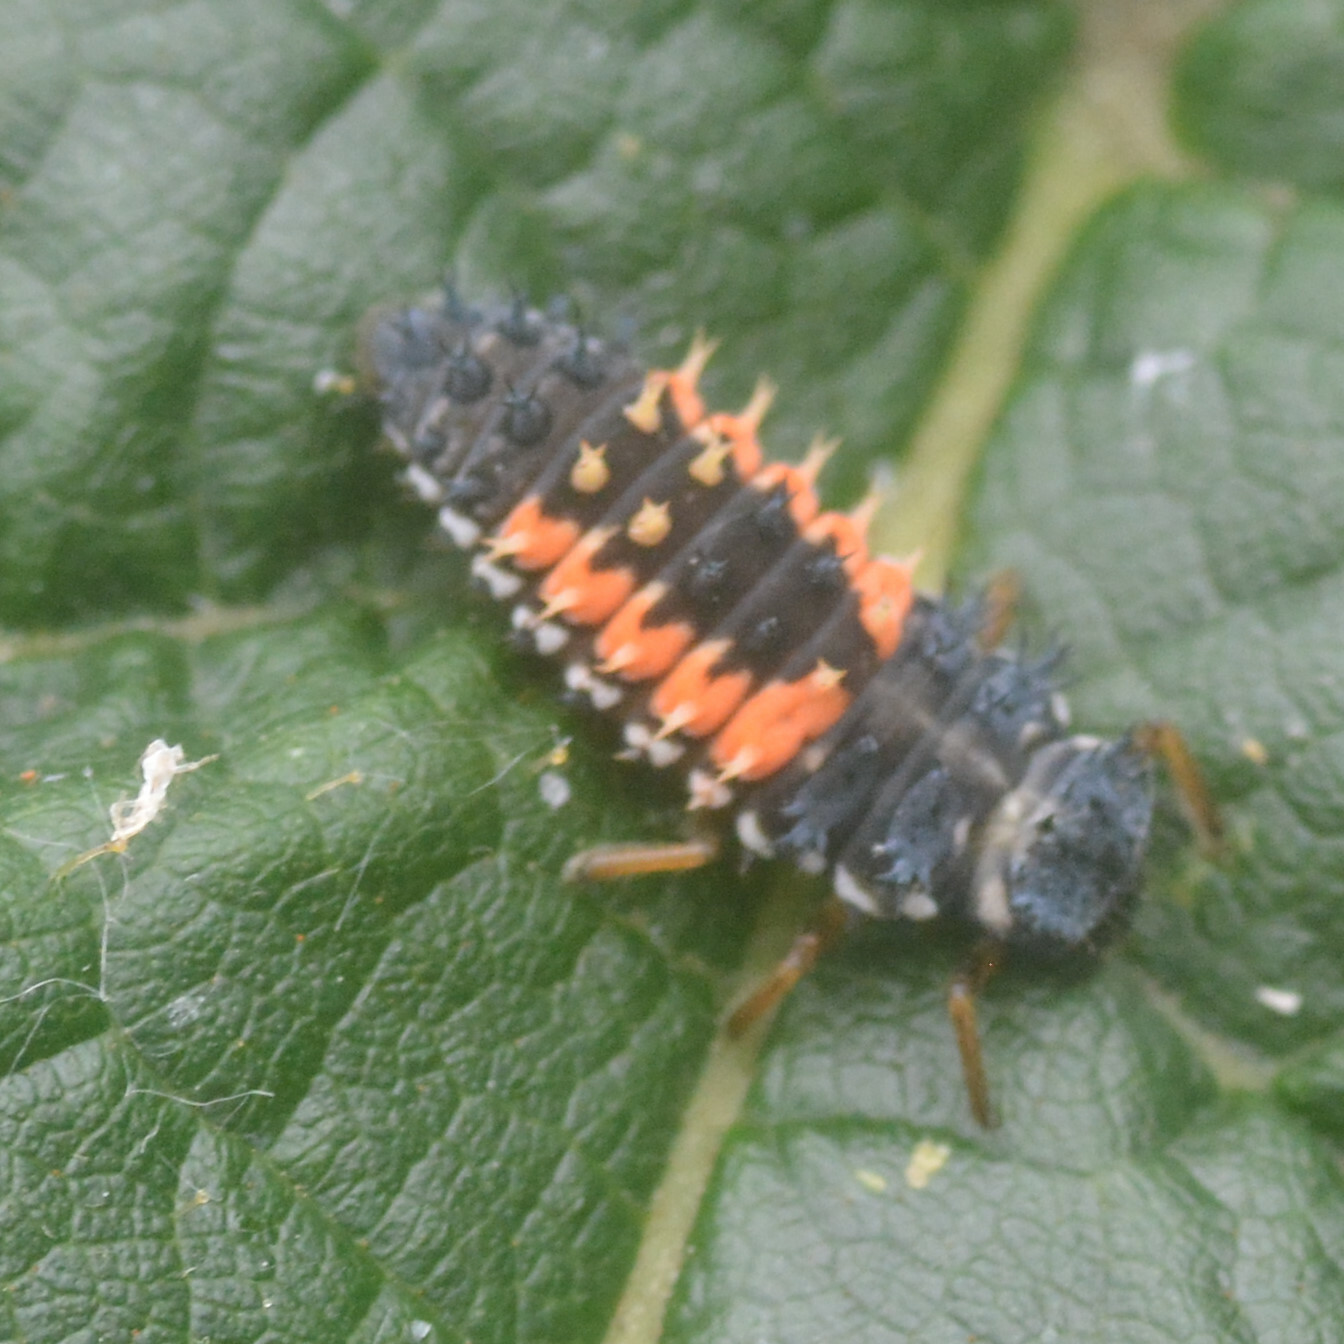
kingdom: Animalia
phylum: Arthropoda
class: Insecta
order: Coleoptera
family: Coccinellidae
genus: Harmonia
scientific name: Harmonia axyridis
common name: Harlequin ladybird
